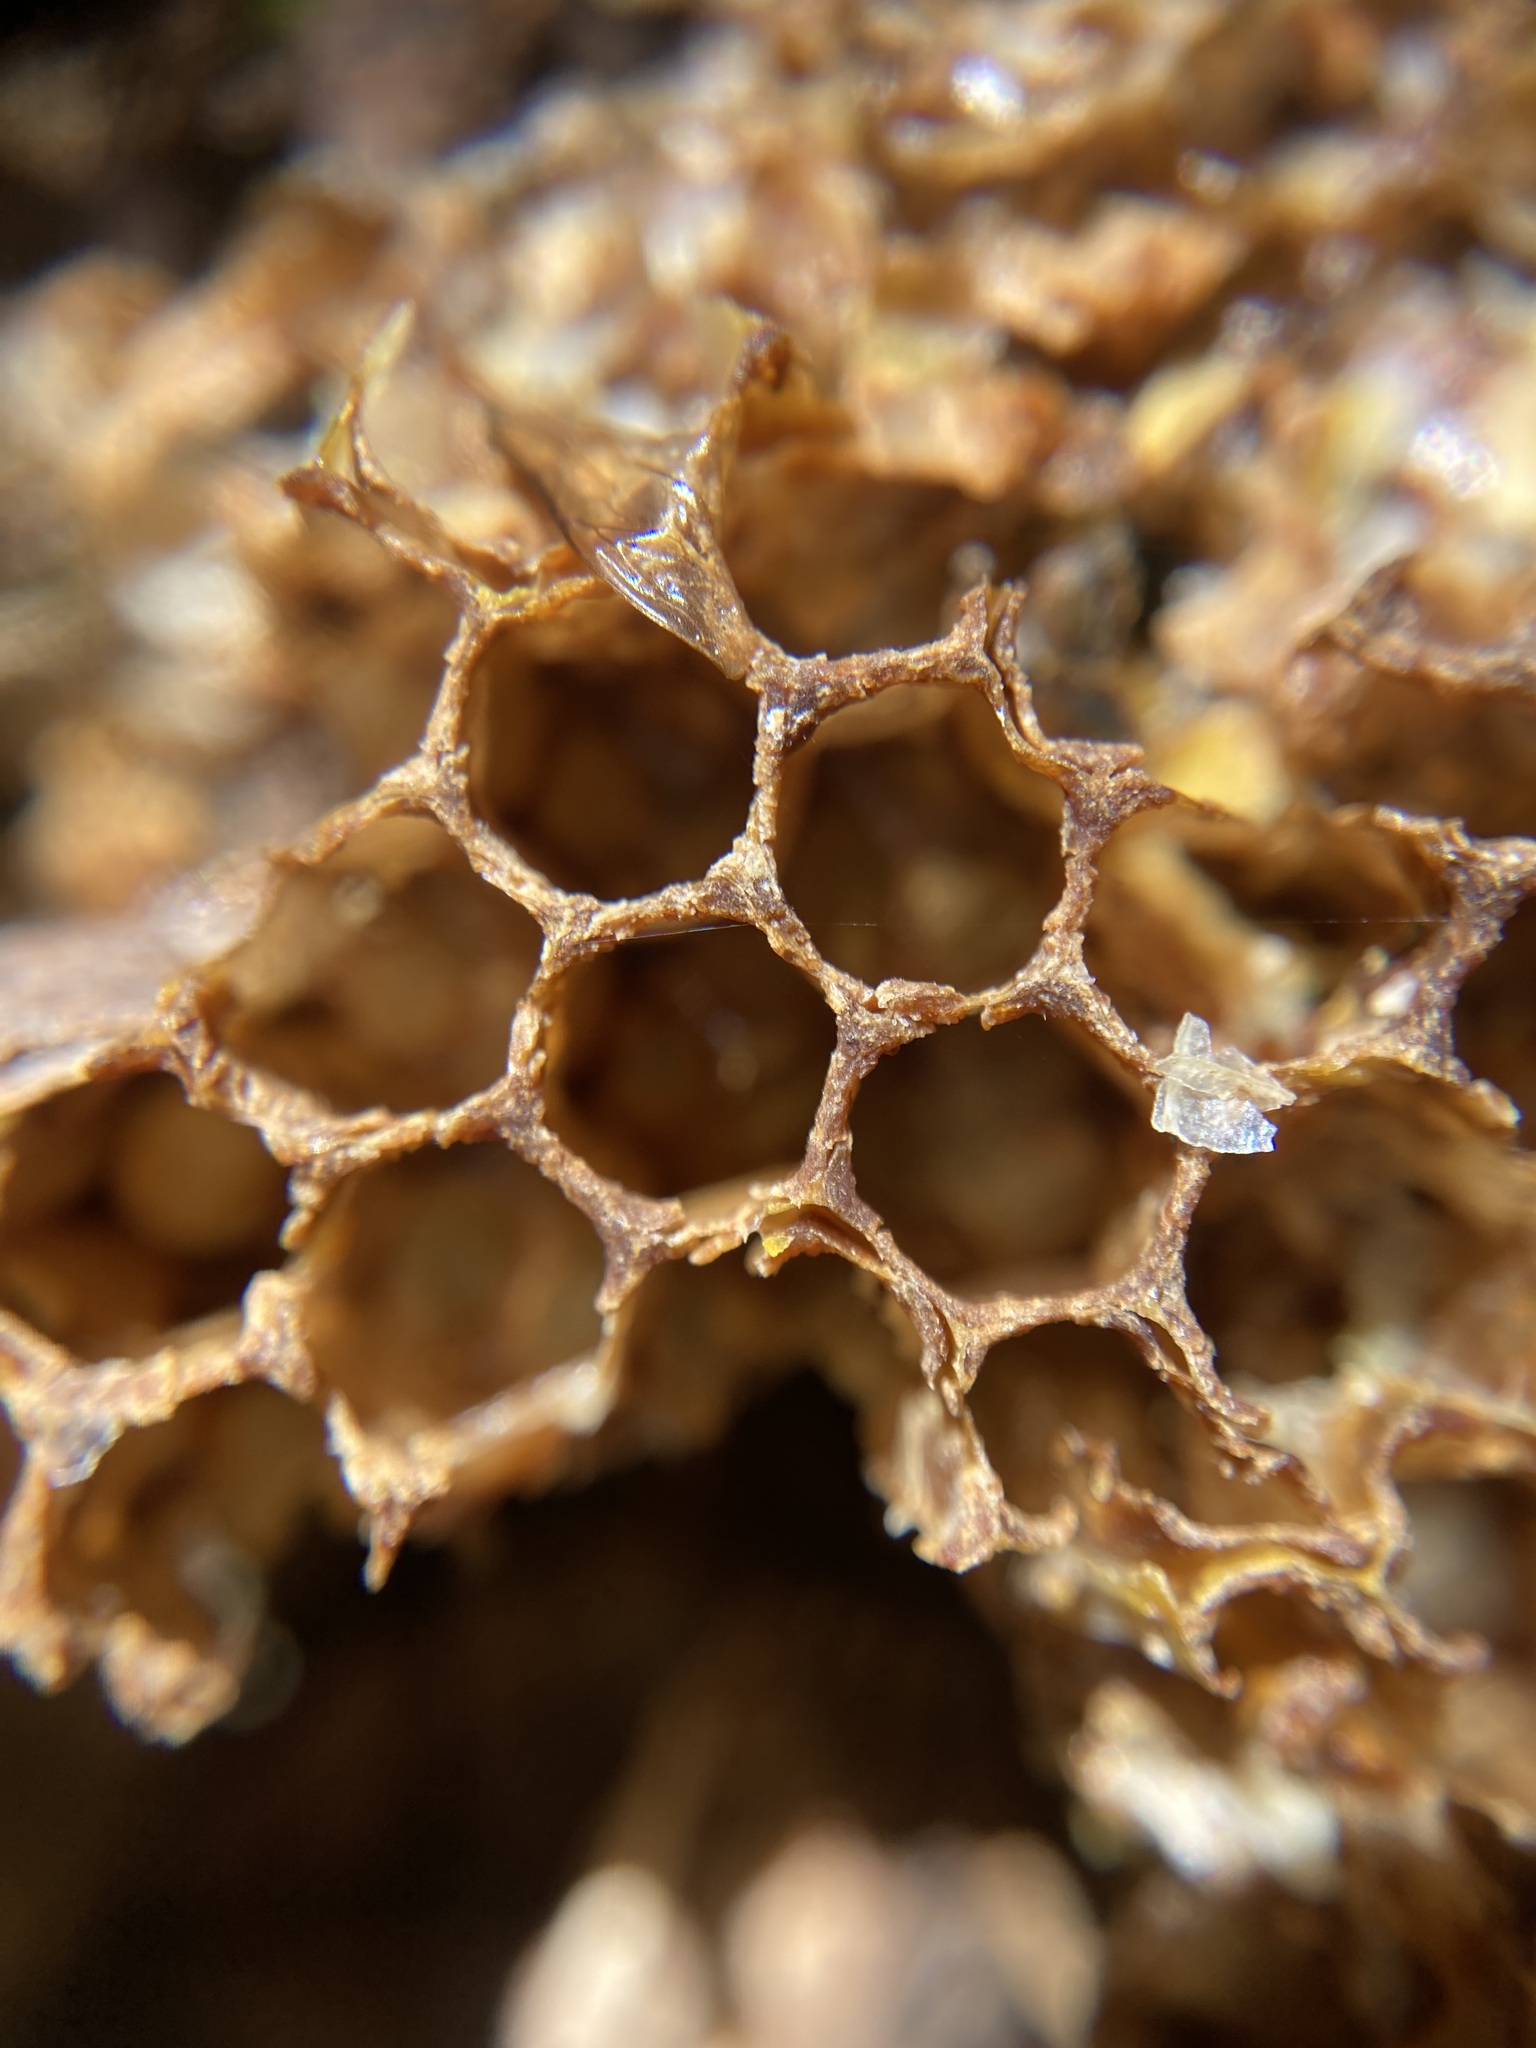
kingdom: Animalia
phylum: Arthropoda
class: Insecta
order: Hymenoptera
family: Apidae
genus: Apis
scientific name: Apis mellifera
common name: Honey bee
